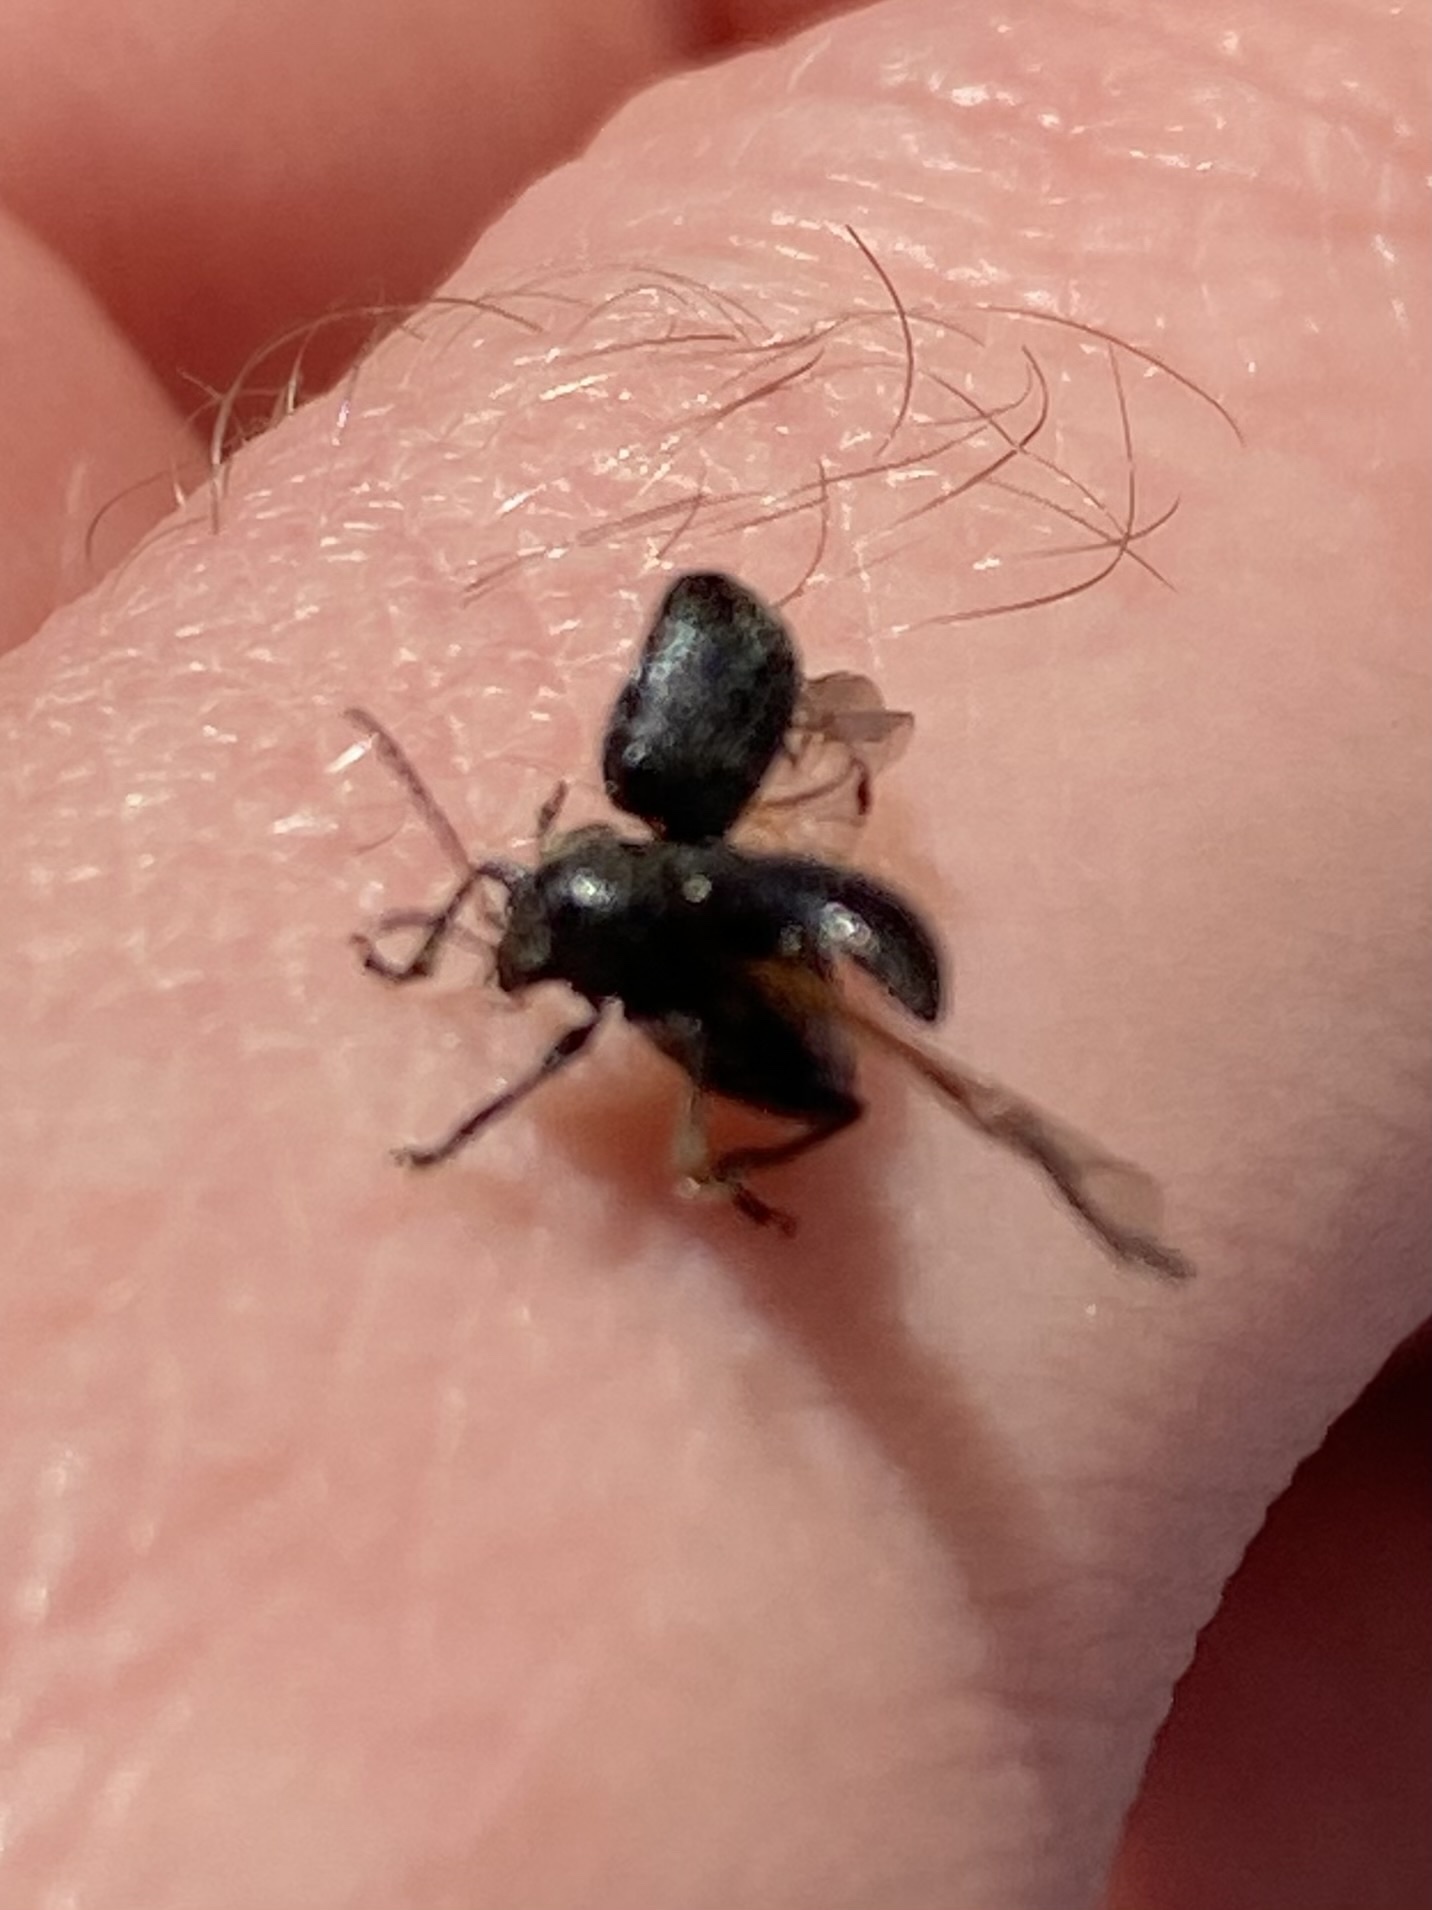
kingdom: Animalia
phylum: Arthropoda
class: Insecta
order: Coleoptera
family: Chrysomelidae
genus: Bromius
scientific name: Bromius obscurus
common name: Western grape rootworm
